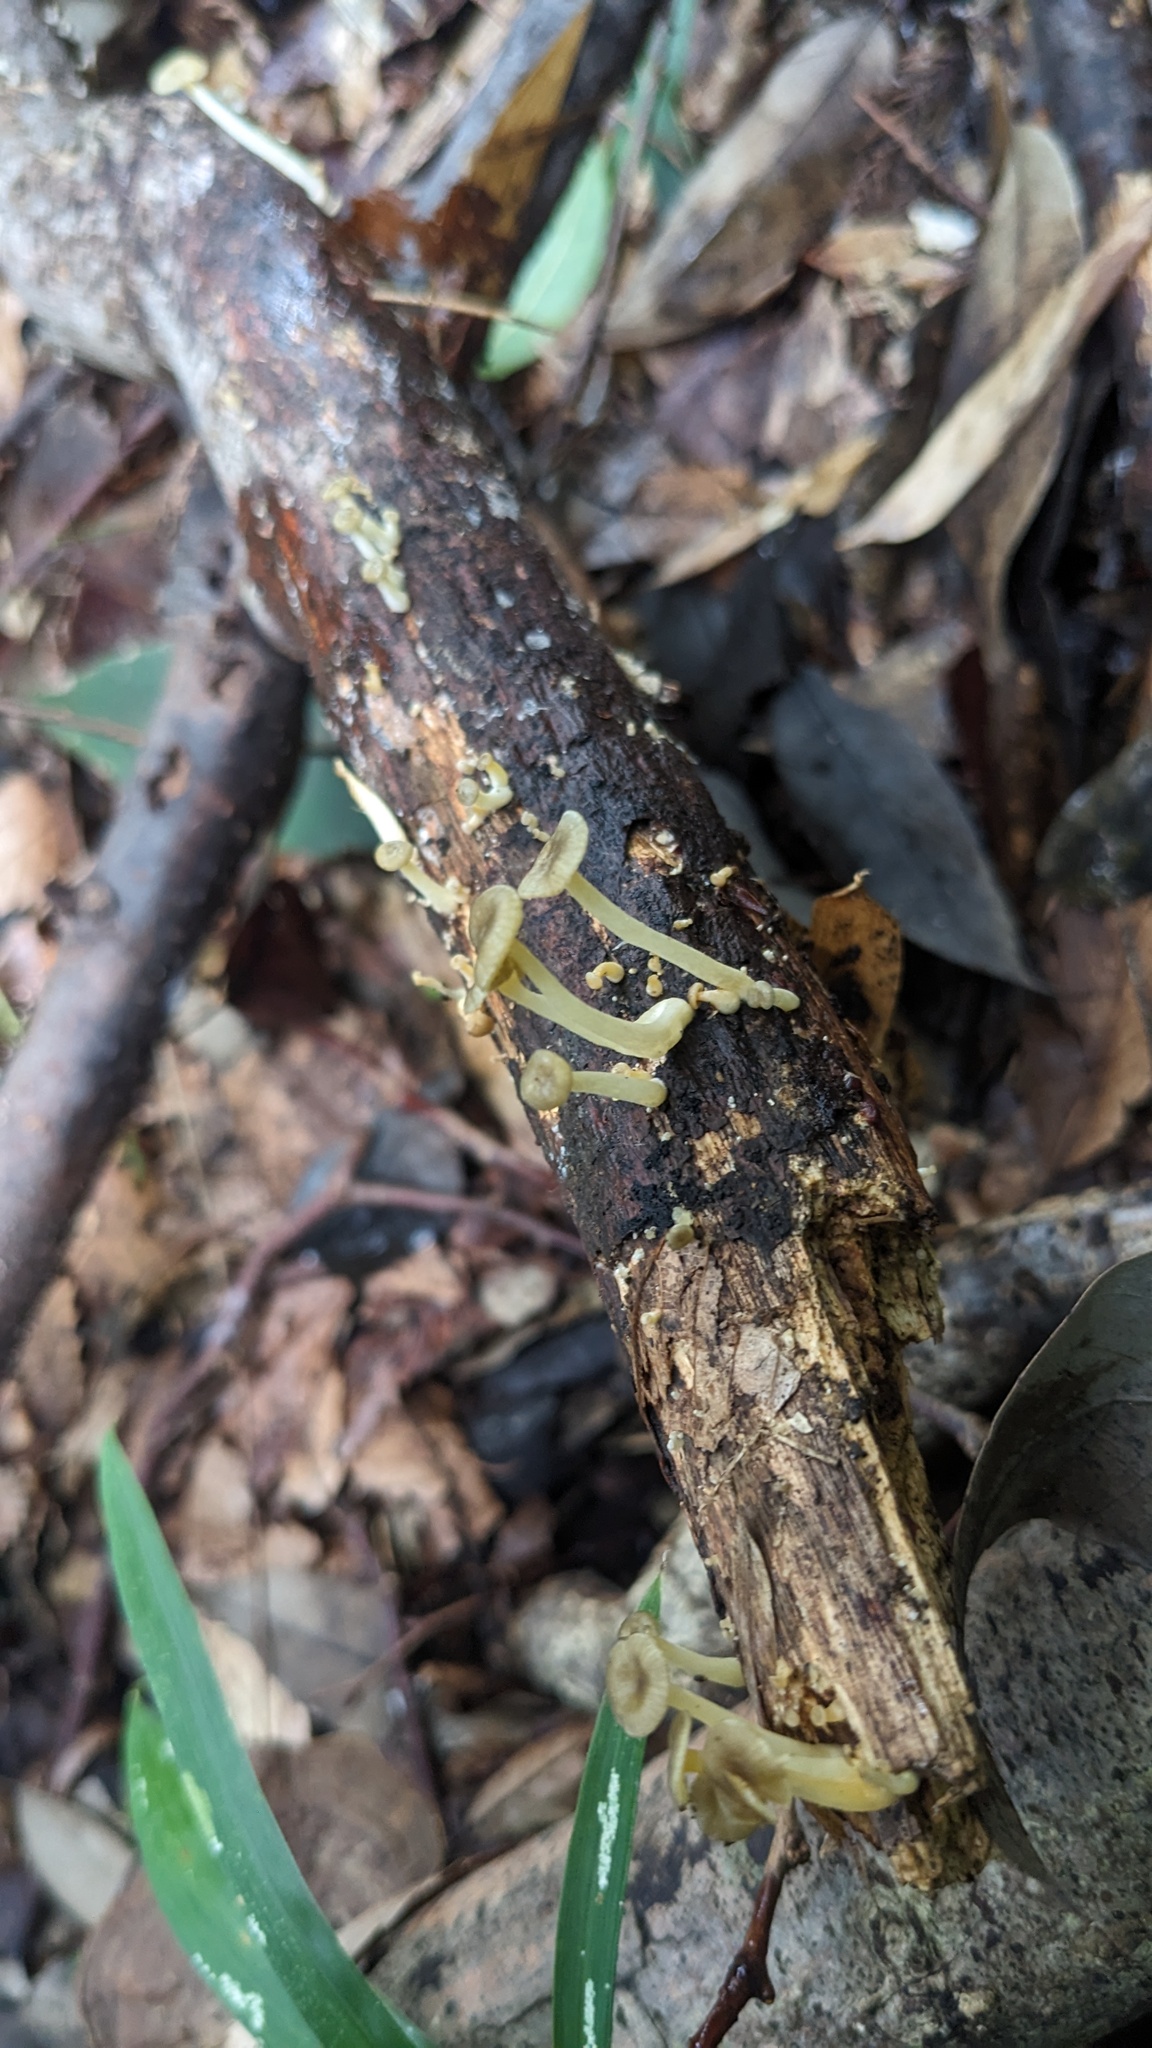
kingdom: Fungi
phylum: Basidiomycota
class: Agaricomycetes
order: Agaricales
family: Marasmiaceae
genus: Gerronema
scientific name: Gerronema nemorale
